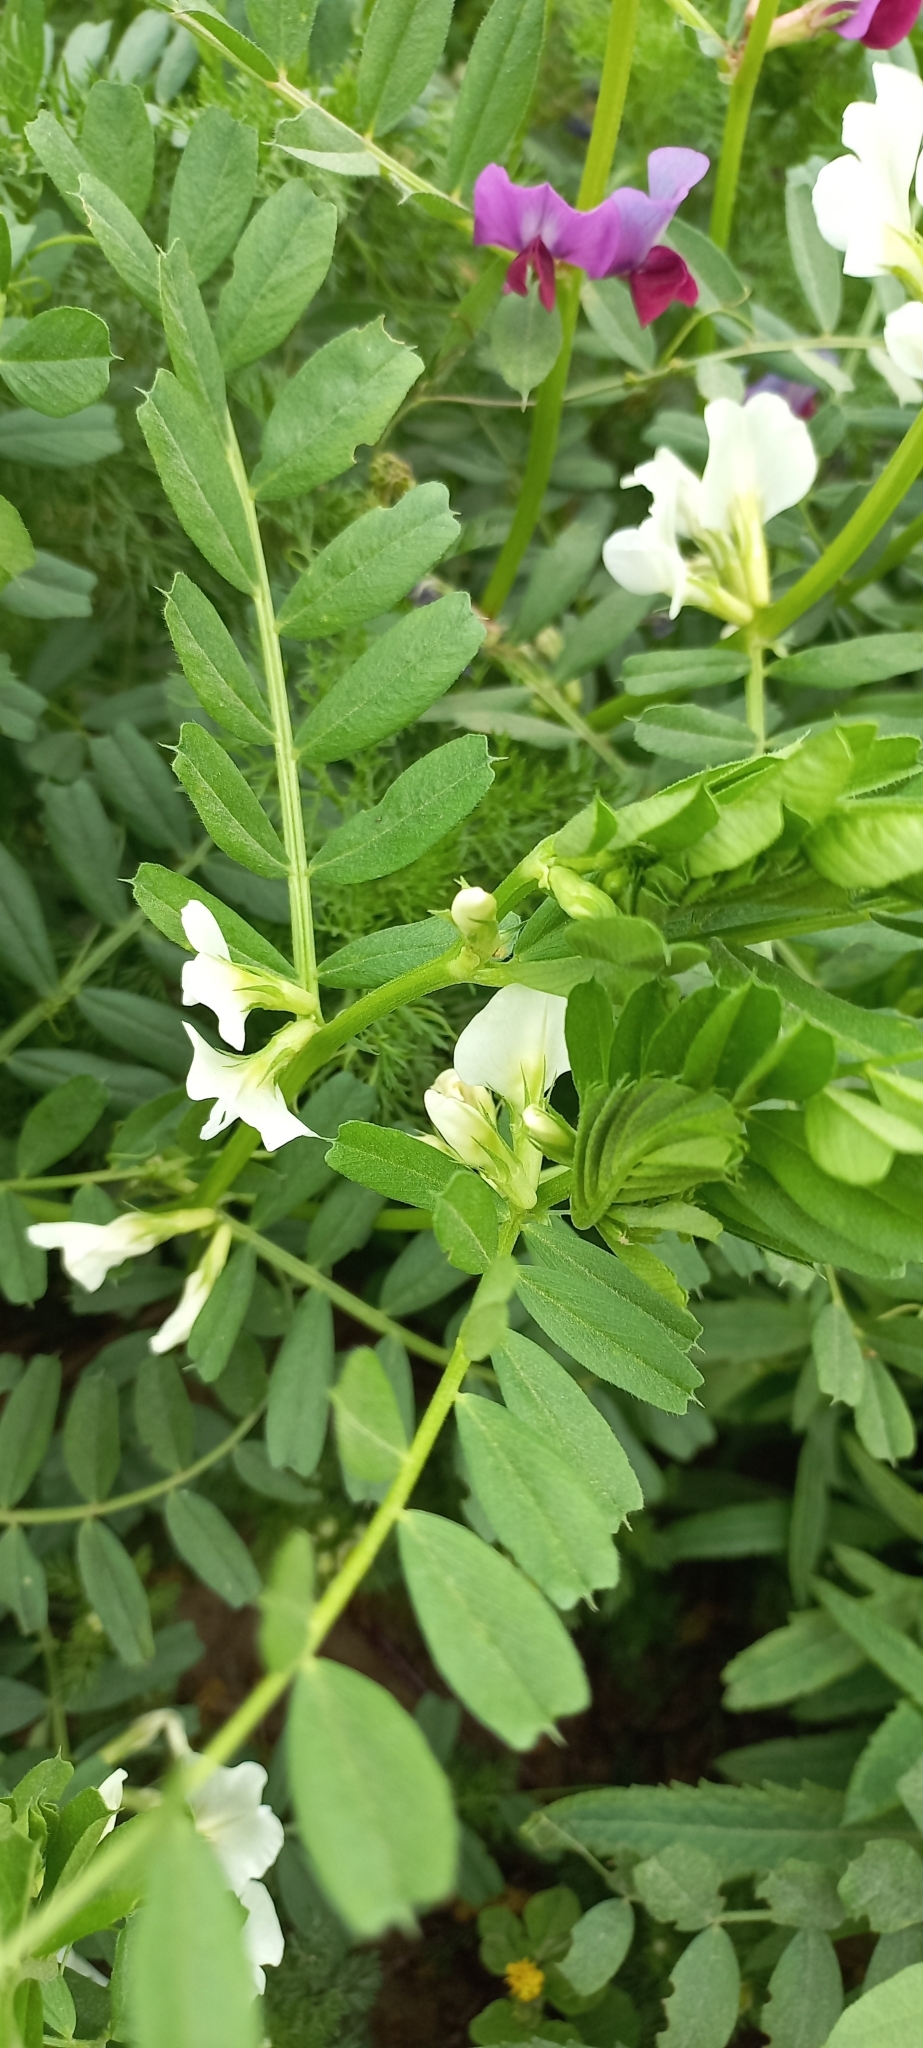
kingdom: Plantae
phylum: Tracheophyta
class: Magnoliopsida
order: Fabales
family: Fabaceae
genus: Vicia
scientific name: Vicia sativa
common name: Garden vetch
